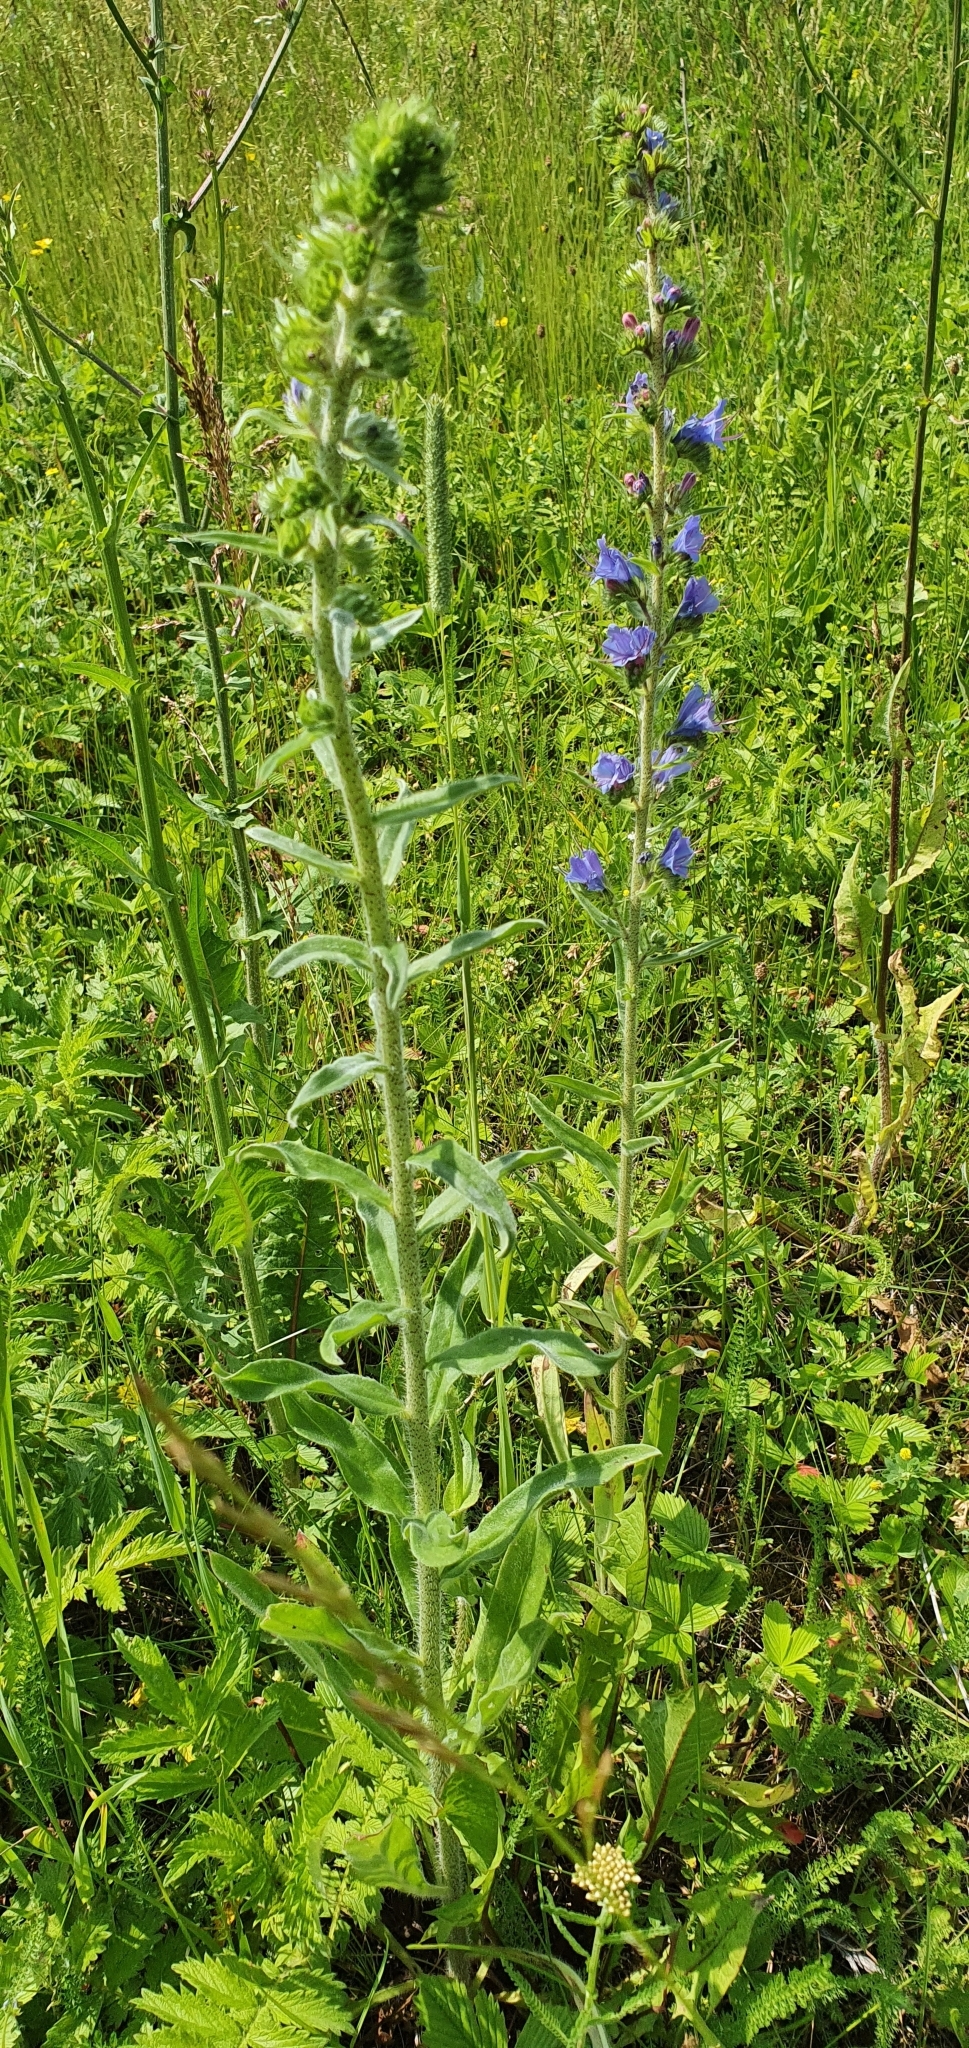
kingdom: Plantae
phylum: Tracheophyta
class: Magnoliopsida
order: Boraginales
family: Boraginaceae
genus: Echium
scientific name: Echium vulgare
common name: Common viper's bugloss
